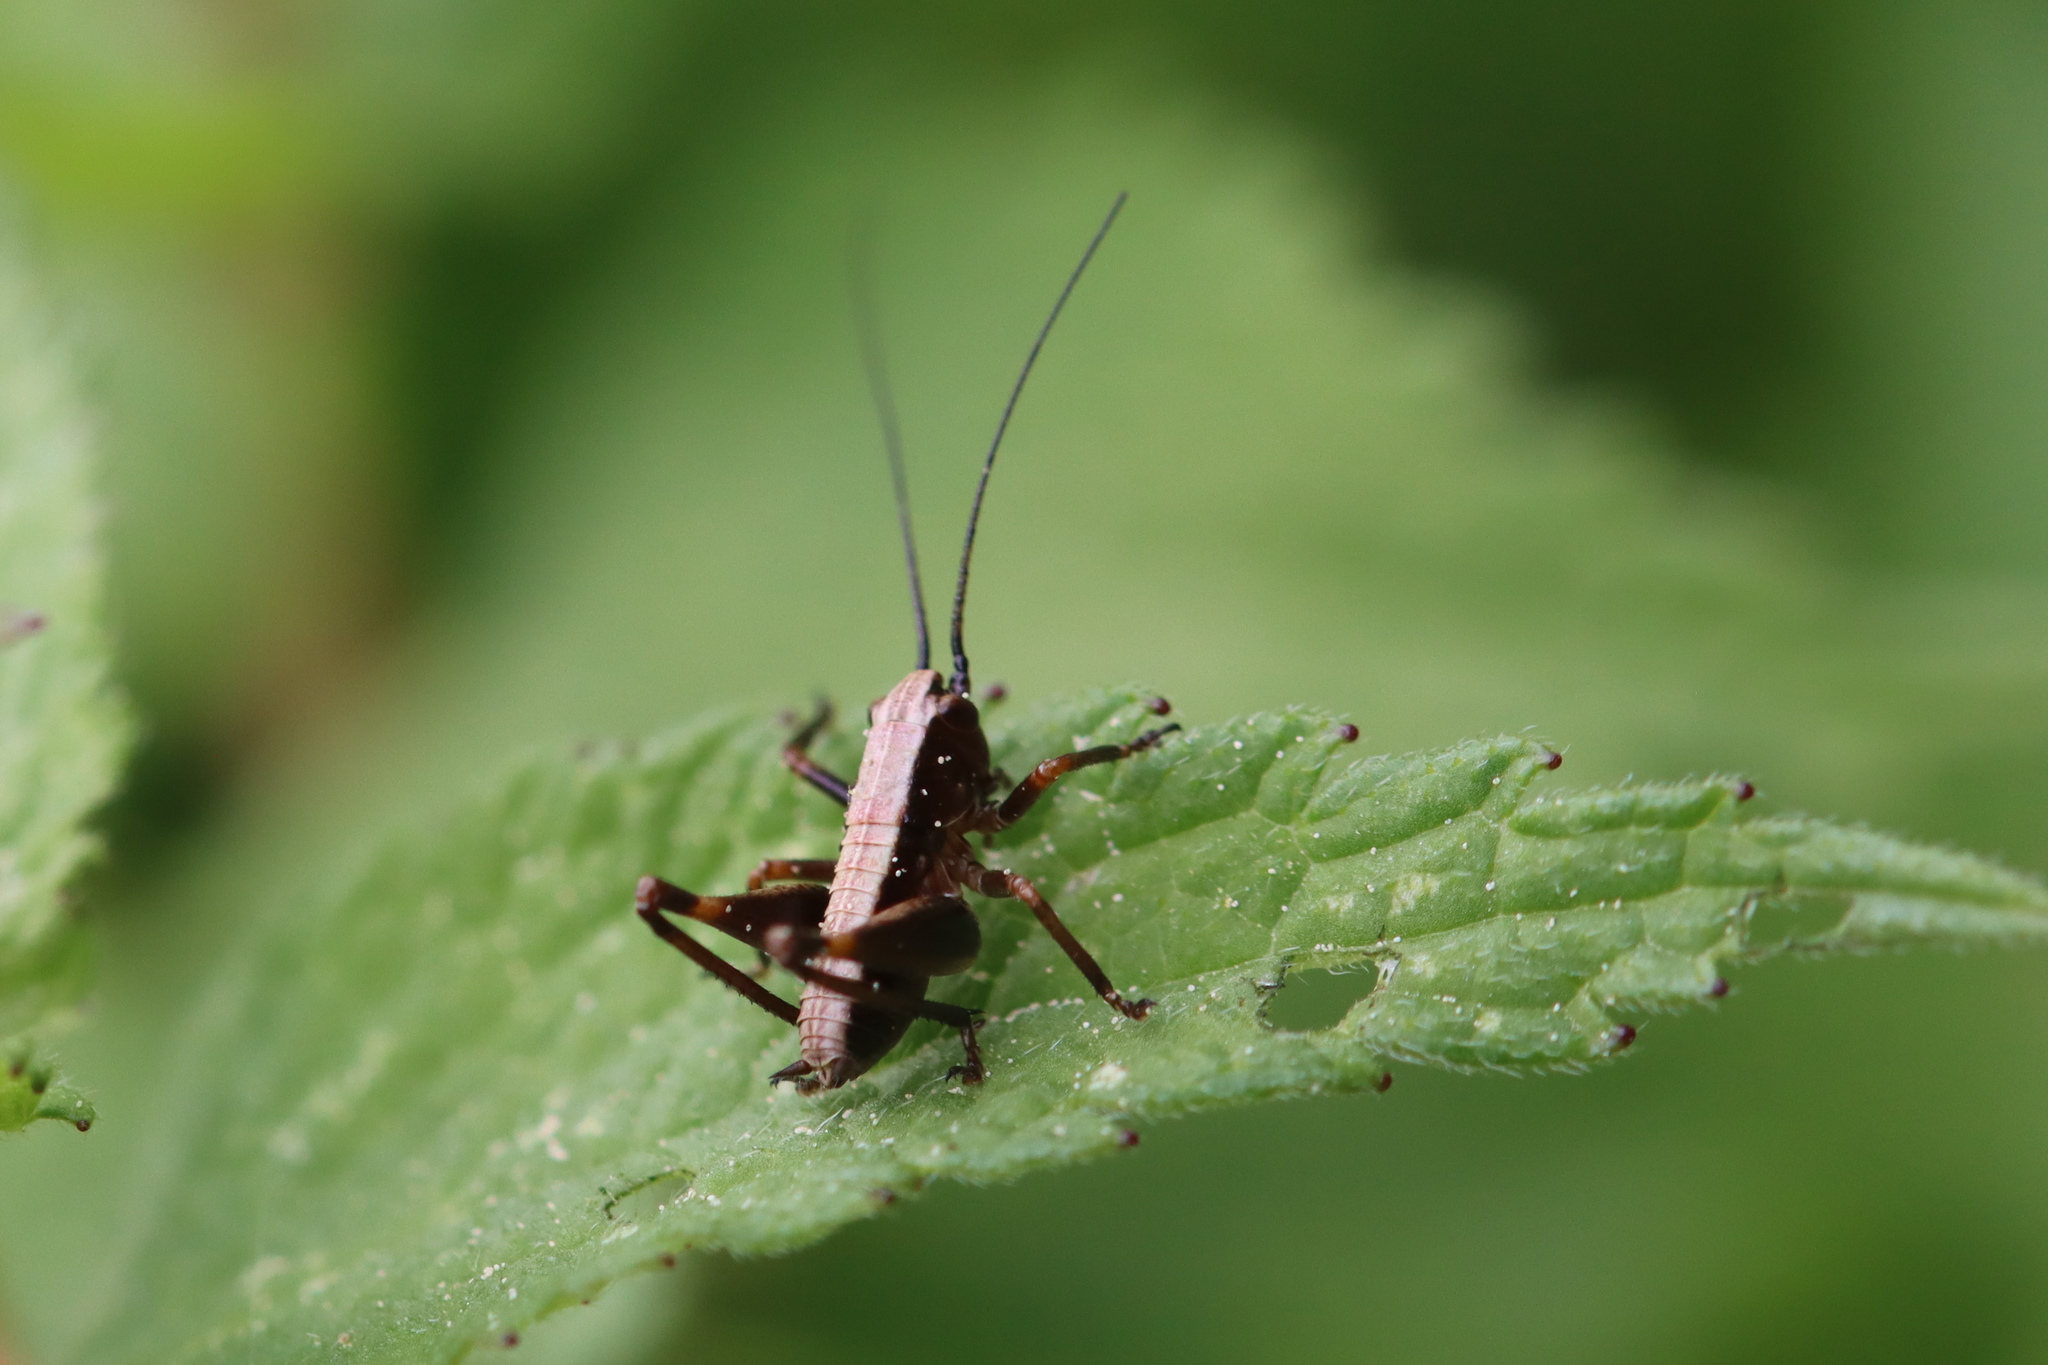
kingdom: Animalia
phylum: Arthropoda
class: Insecta
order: Orthoptera
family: Tettigoniidae
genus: Pholidoptera
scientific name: Pholidoptera griseoaptera
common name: Dark bush-cricket
